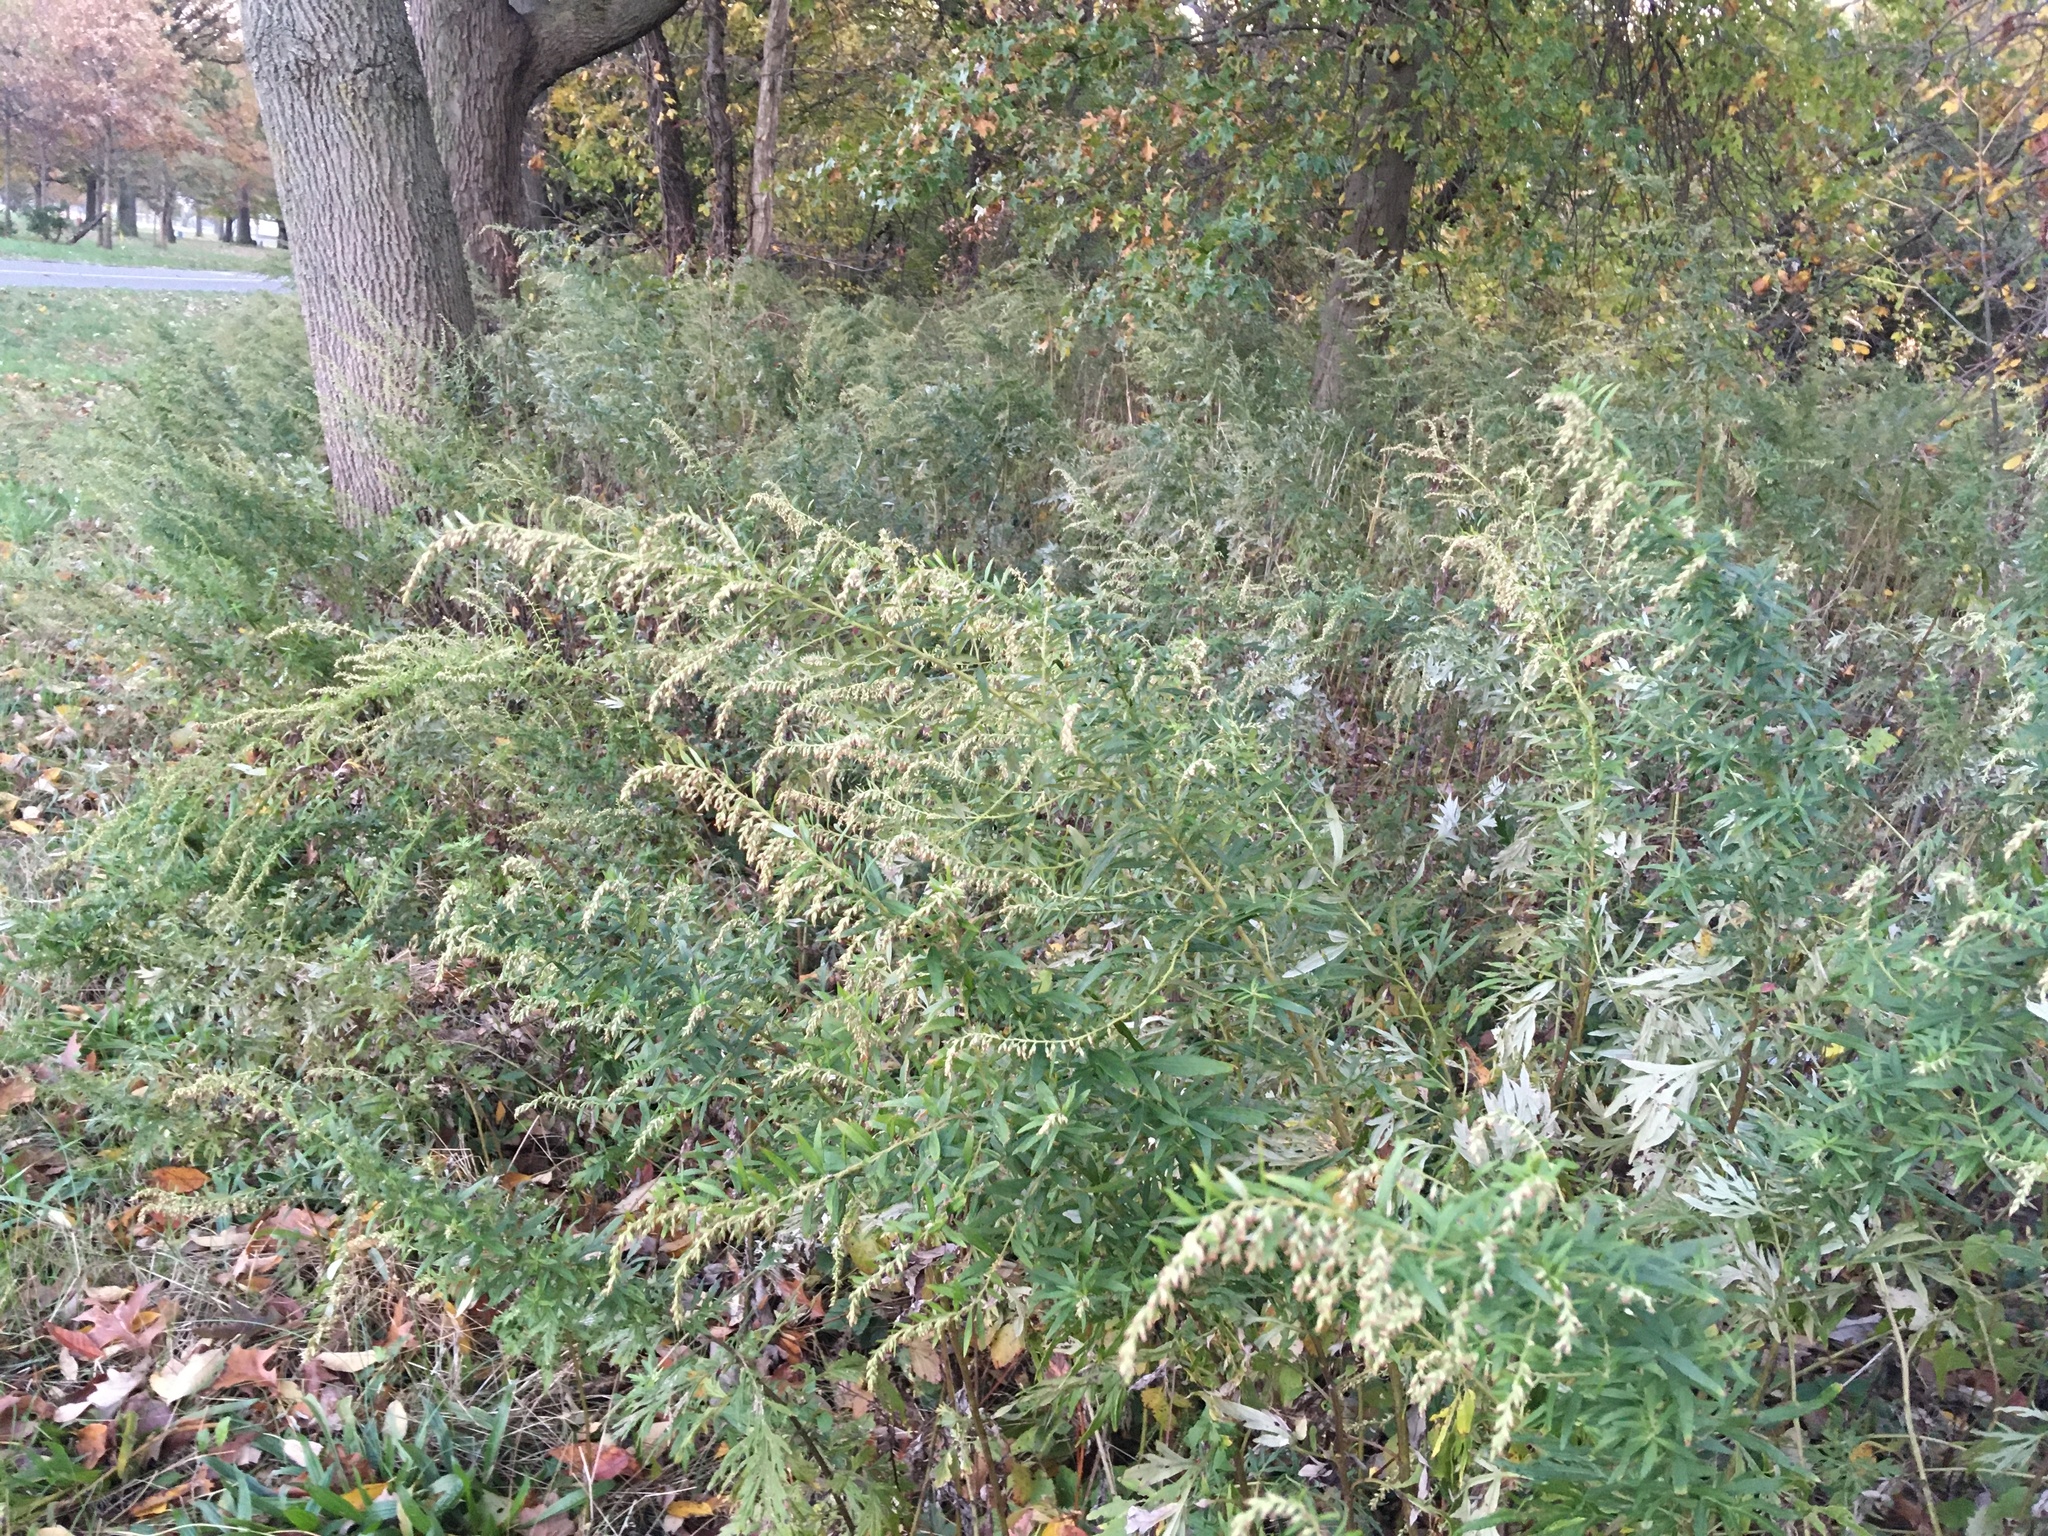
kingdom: Plantae
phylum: Tracheophyta
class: Magnoliopsida
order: Asterales
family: Asteraceae
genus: Artemisia
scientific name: Artemisia vulgaris
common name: Mugwort
